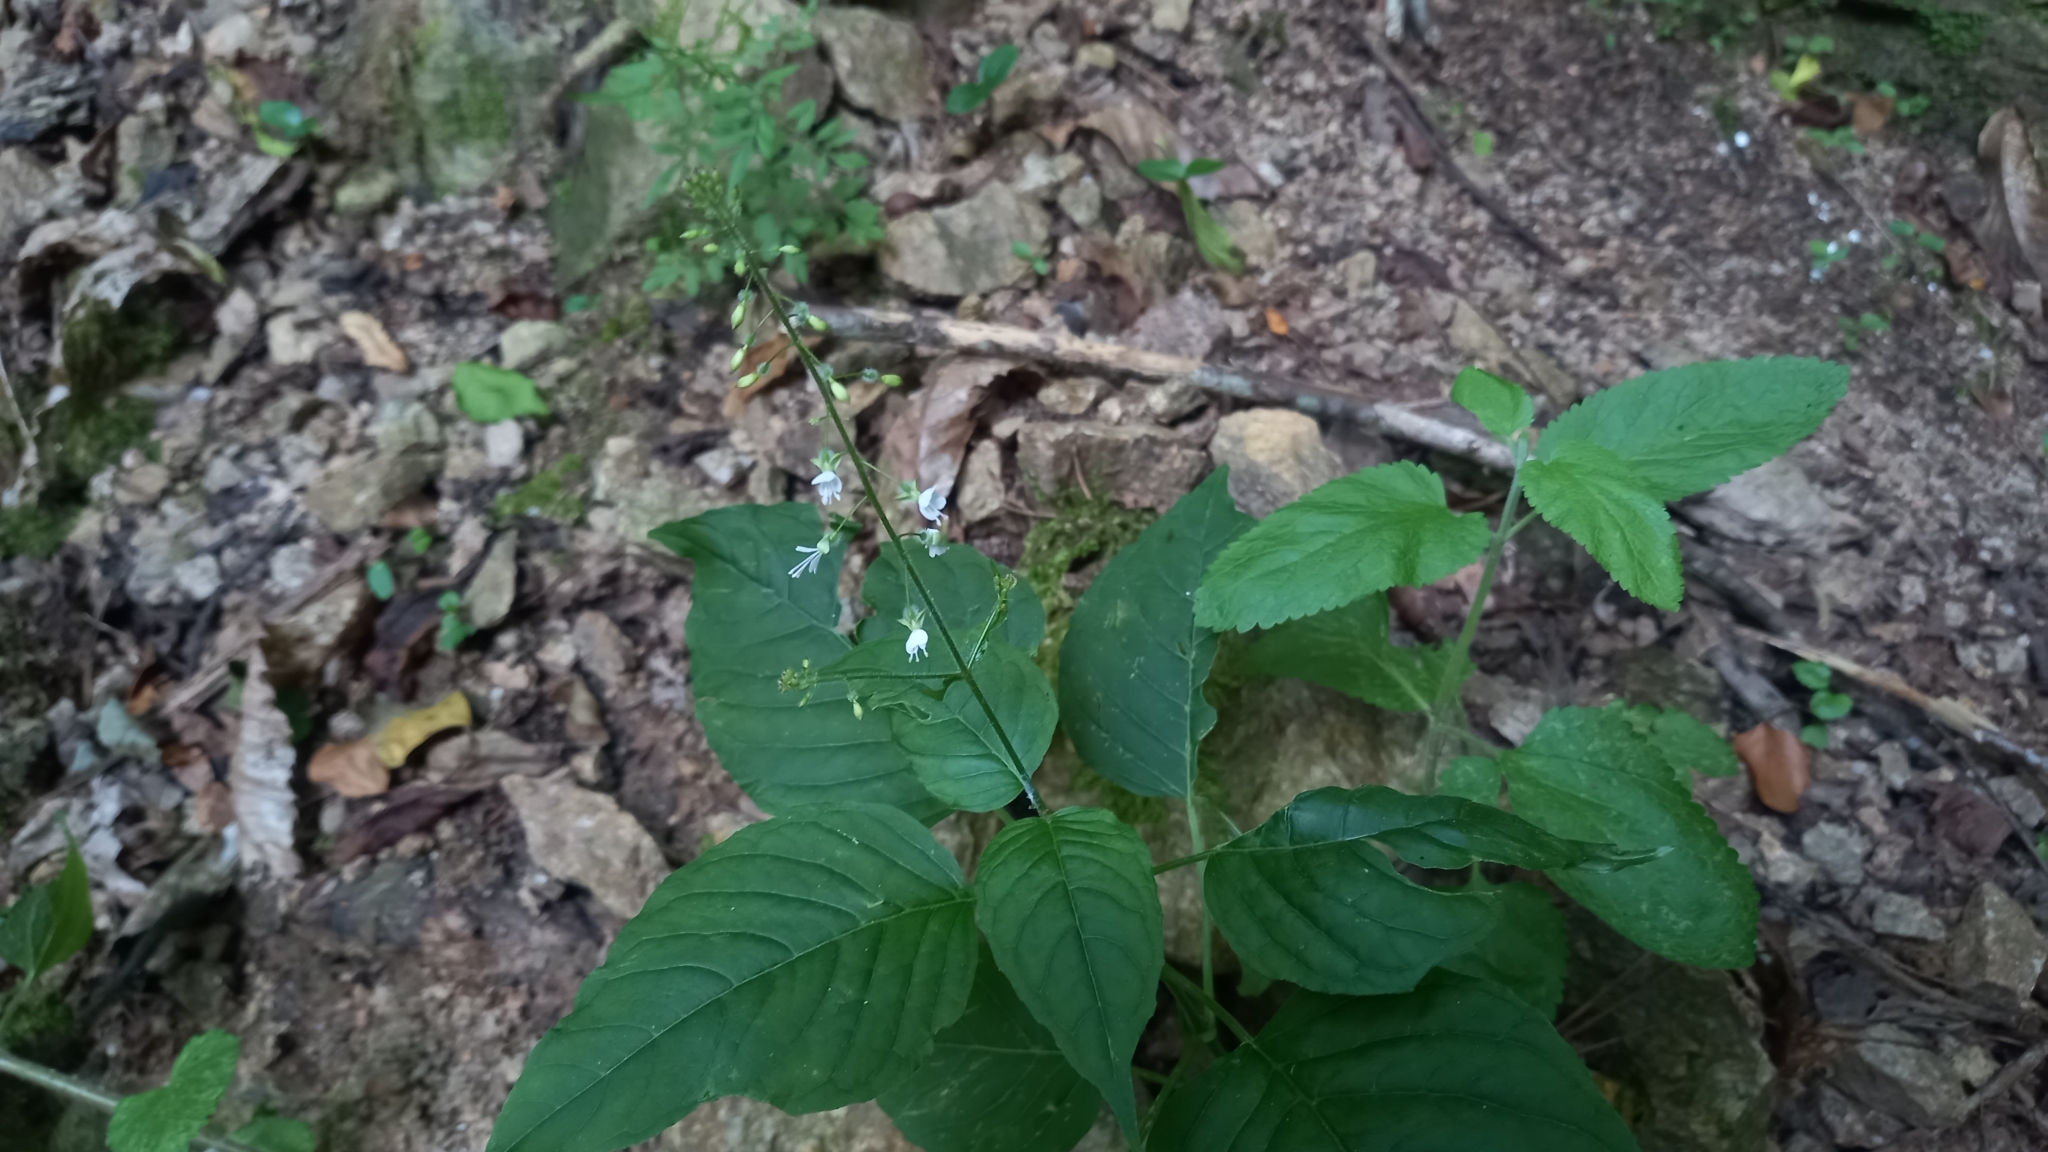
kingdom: Plantae
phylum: Tracheophyta
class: Magnoliopsida
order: Myrtales
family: Onagraceae
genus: Circaea
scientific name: Circaea lutetiana
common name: Enchanter's-nightshade
